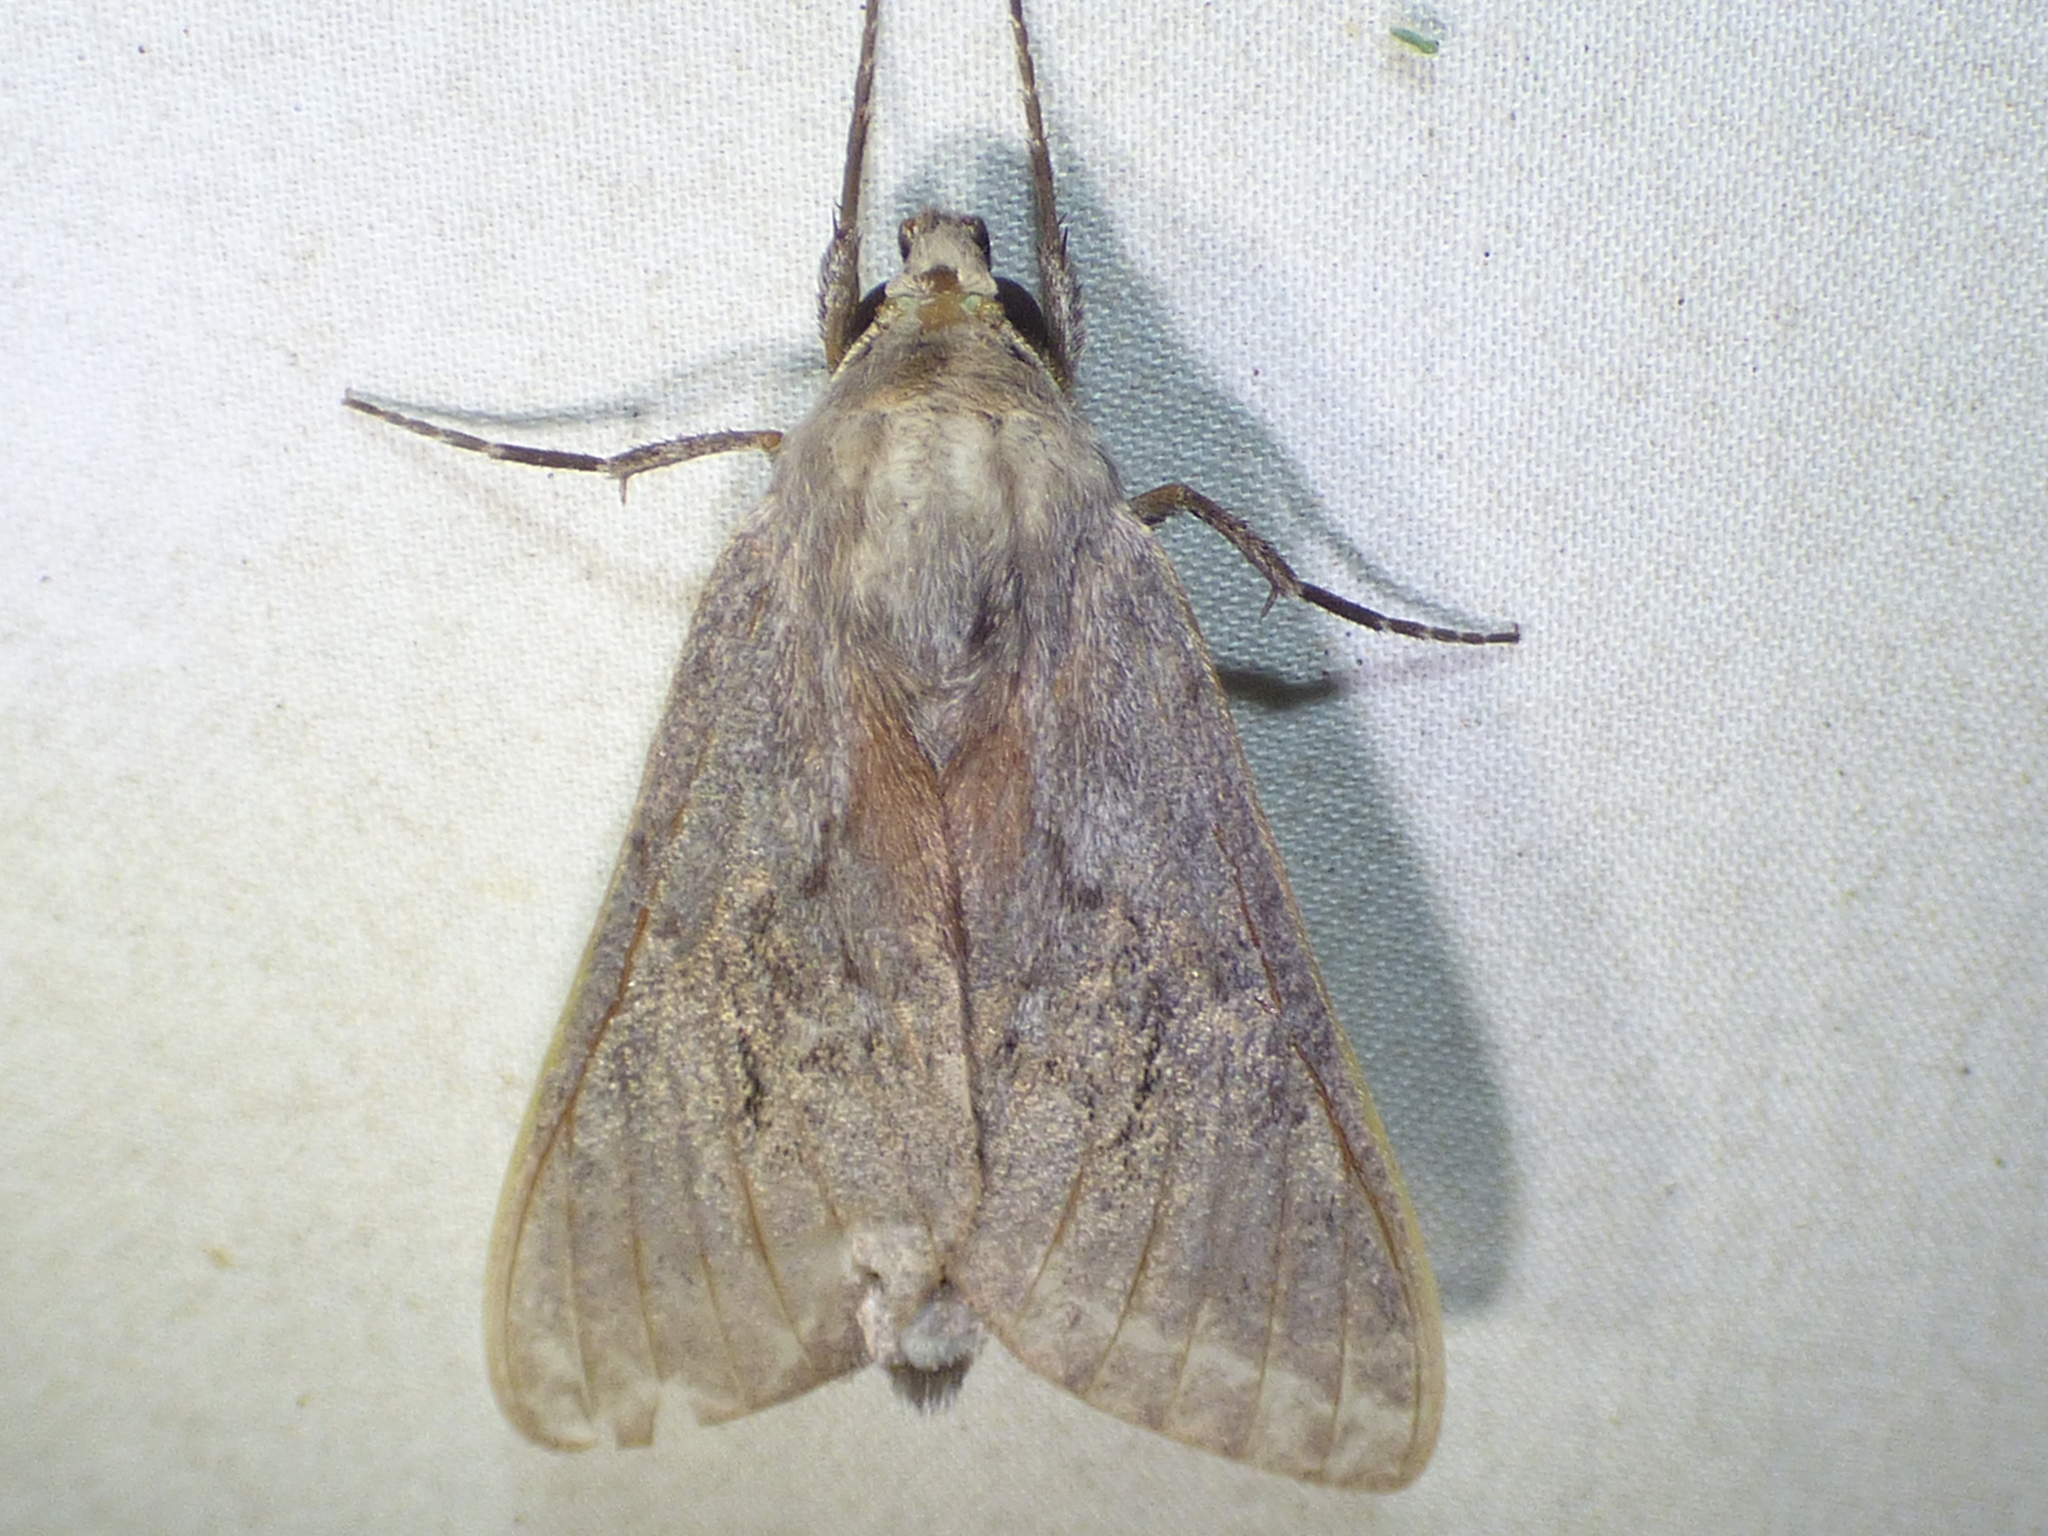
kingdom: Animalia
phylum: Arthropoda
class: Insecta
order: Lepidoptera
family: Sphingidae
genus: Lapara
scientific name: Lapara coniferarum
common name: Southern pine sphinx
